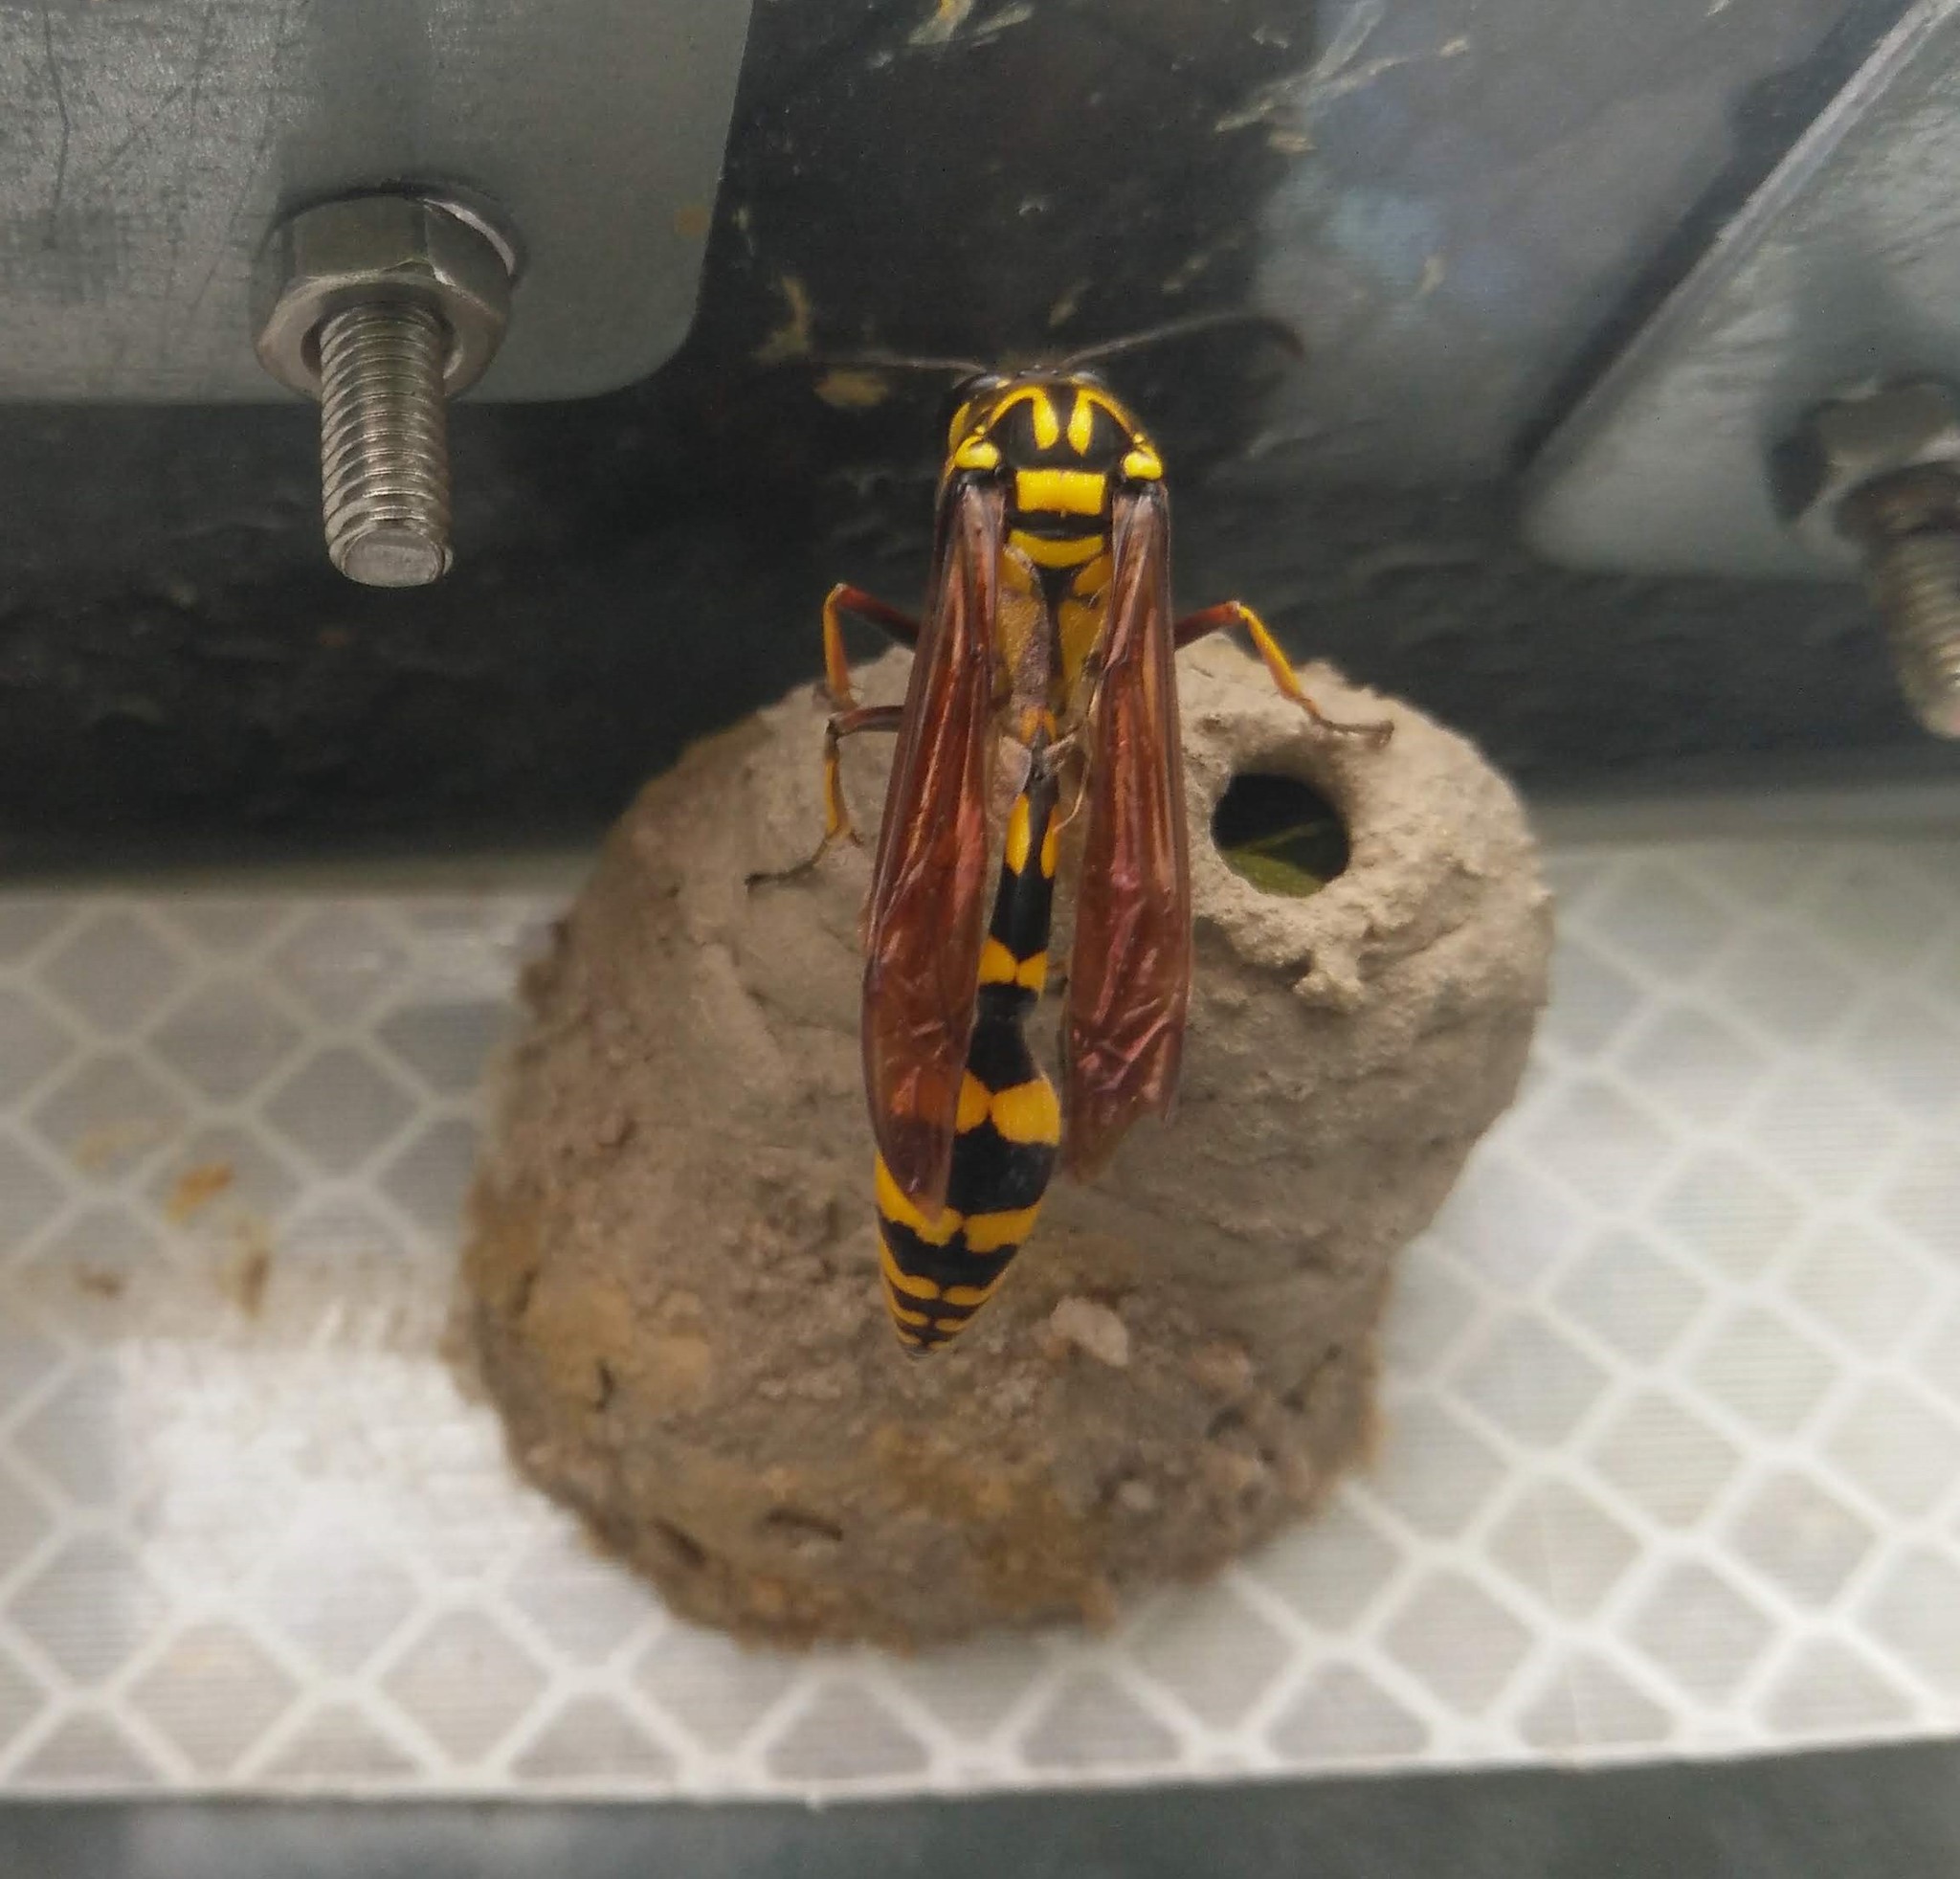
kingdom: Animalia
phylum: Arthropoda
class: Insecta
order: Hymenoptera
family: Eumenidae
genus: Phimenes
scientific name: Phimenes flavopictus
